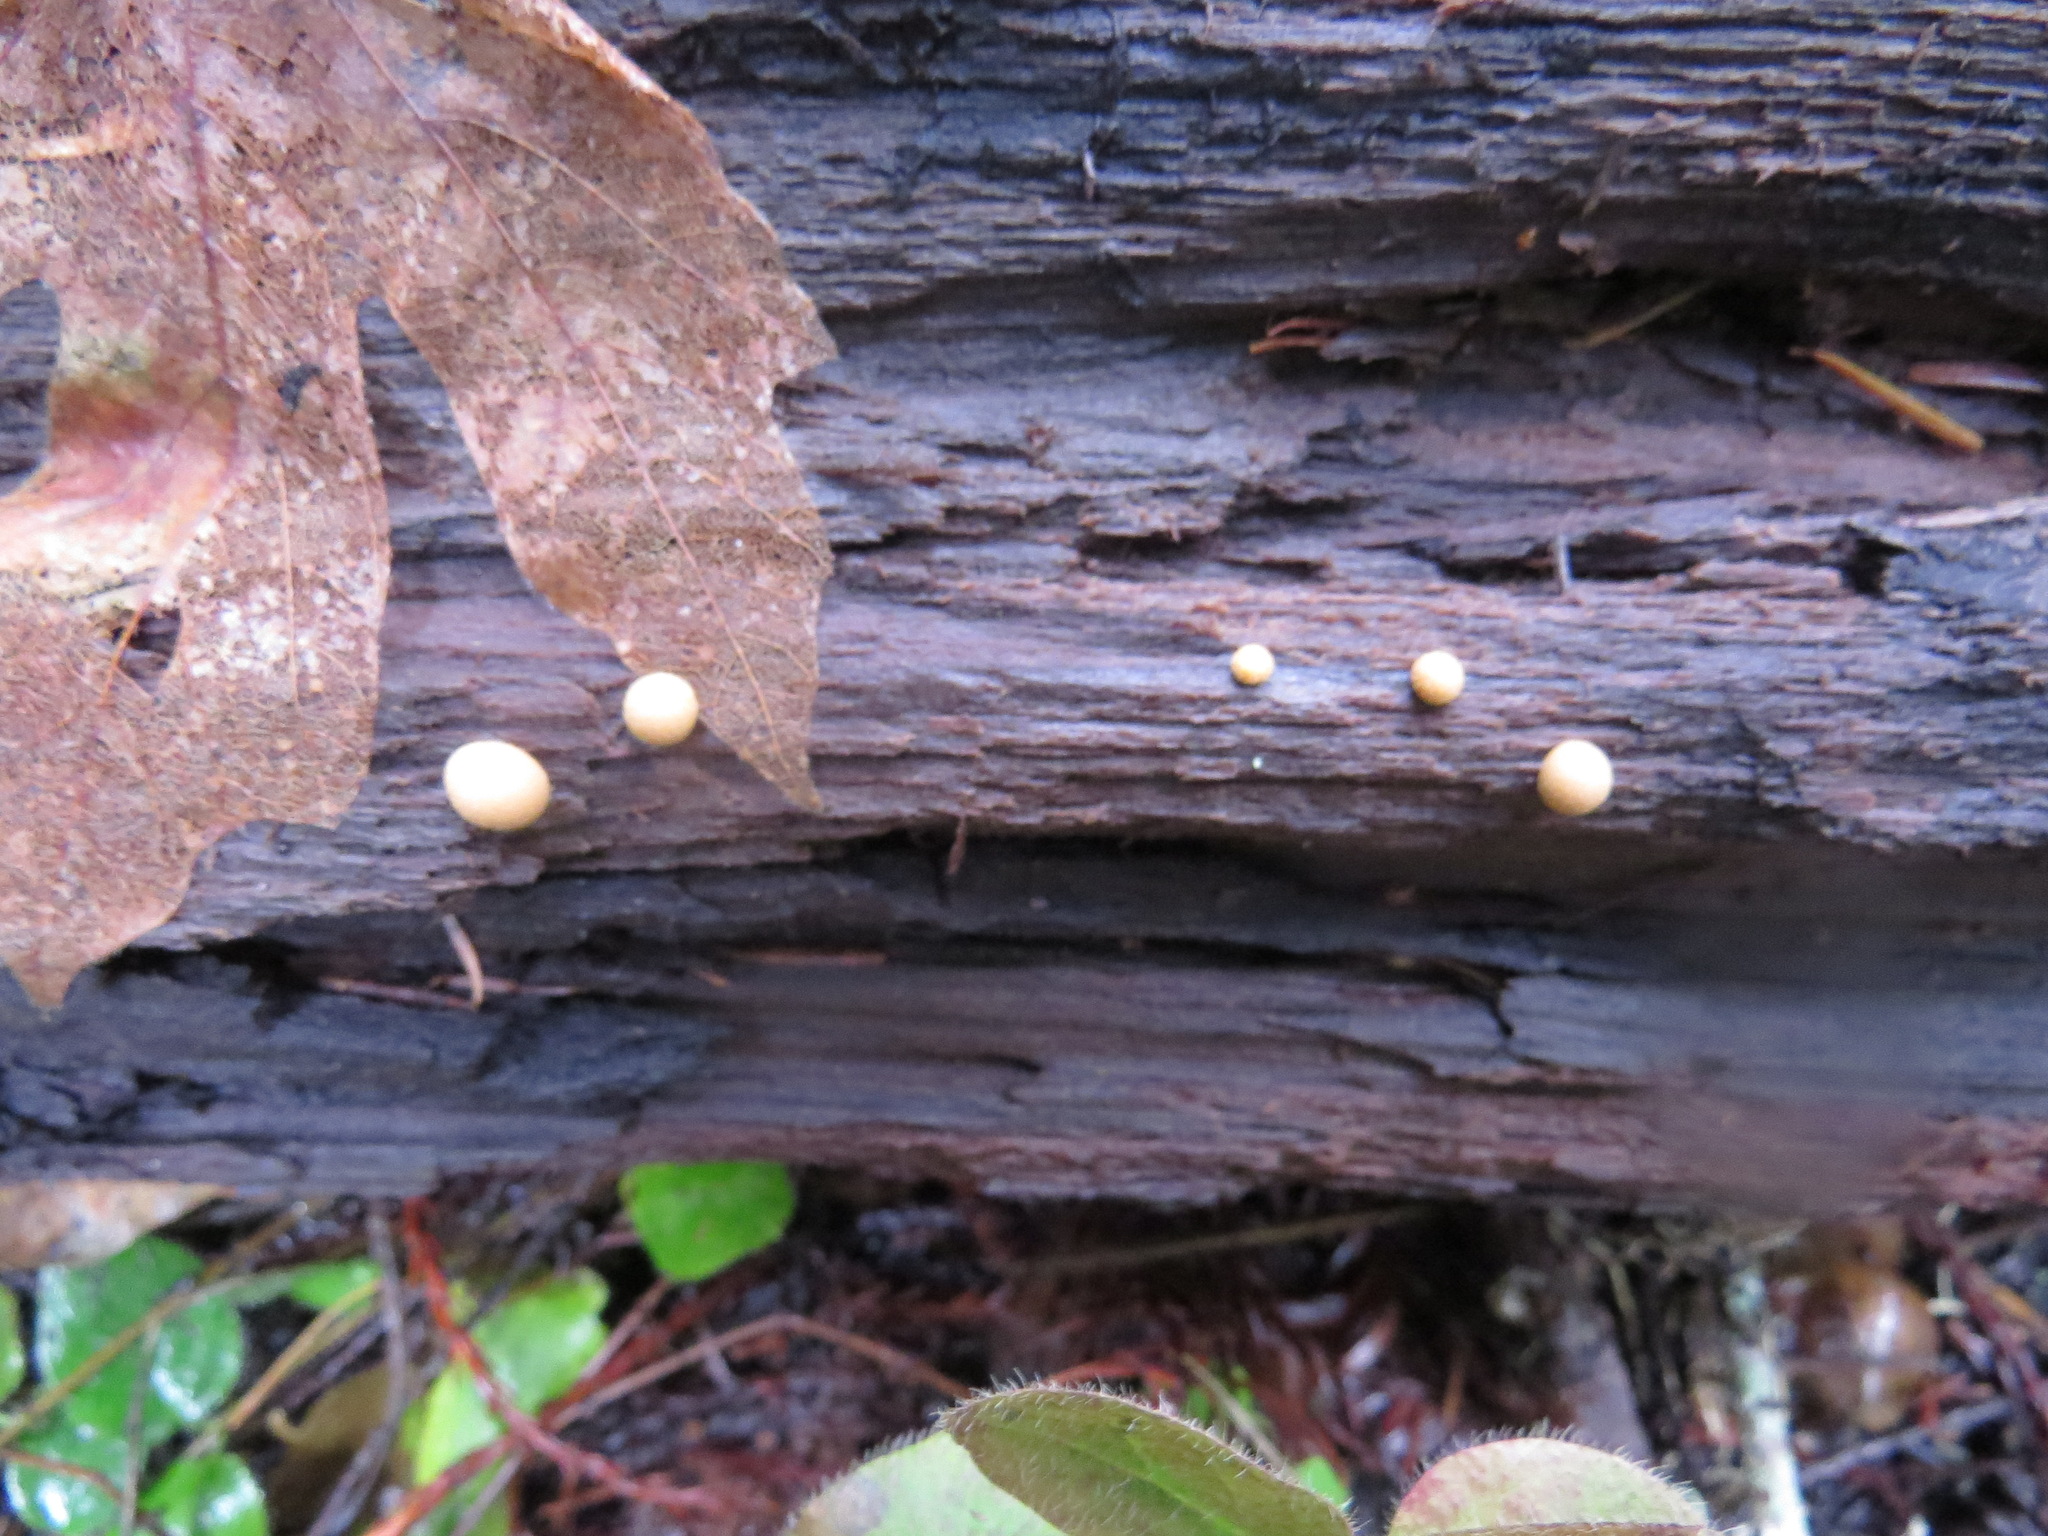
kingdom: Protozoa
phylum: Mycetozoa
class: Myxomycetes
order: Cribrariales
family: Tubiferaceae
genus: Lycogala
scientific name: Lycogala epidendrum
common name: Wolf's milk
